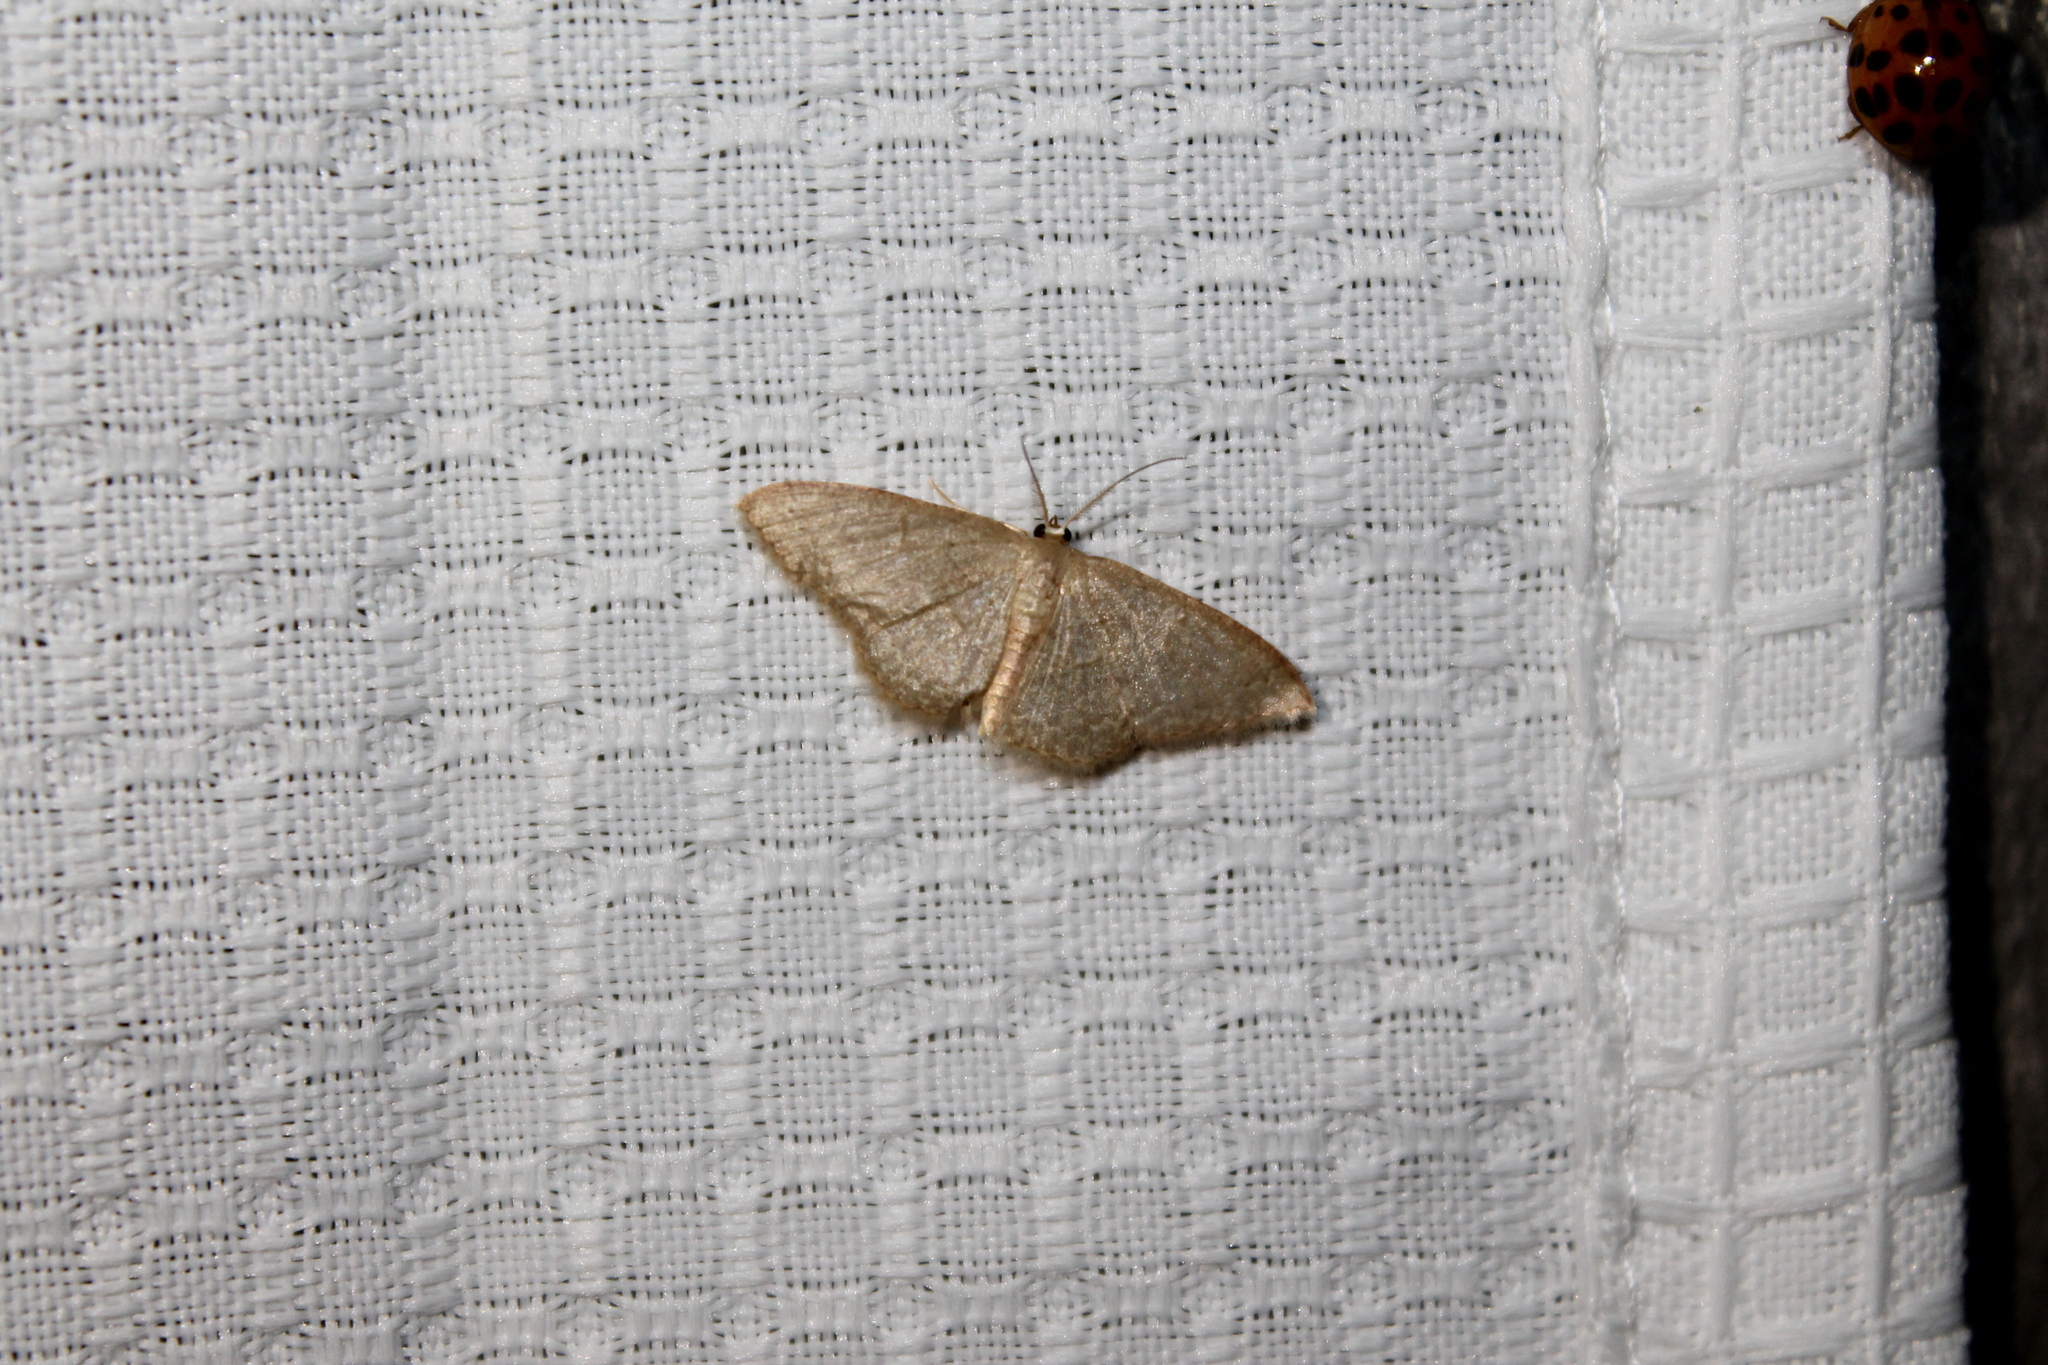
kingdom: Animalia
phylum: Arthropoda
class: Insecta
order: Lepidoptera
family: Geometridae
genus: Pleuroprucha
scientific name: Pleuroprucha insulsaria
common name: Common tan wave
